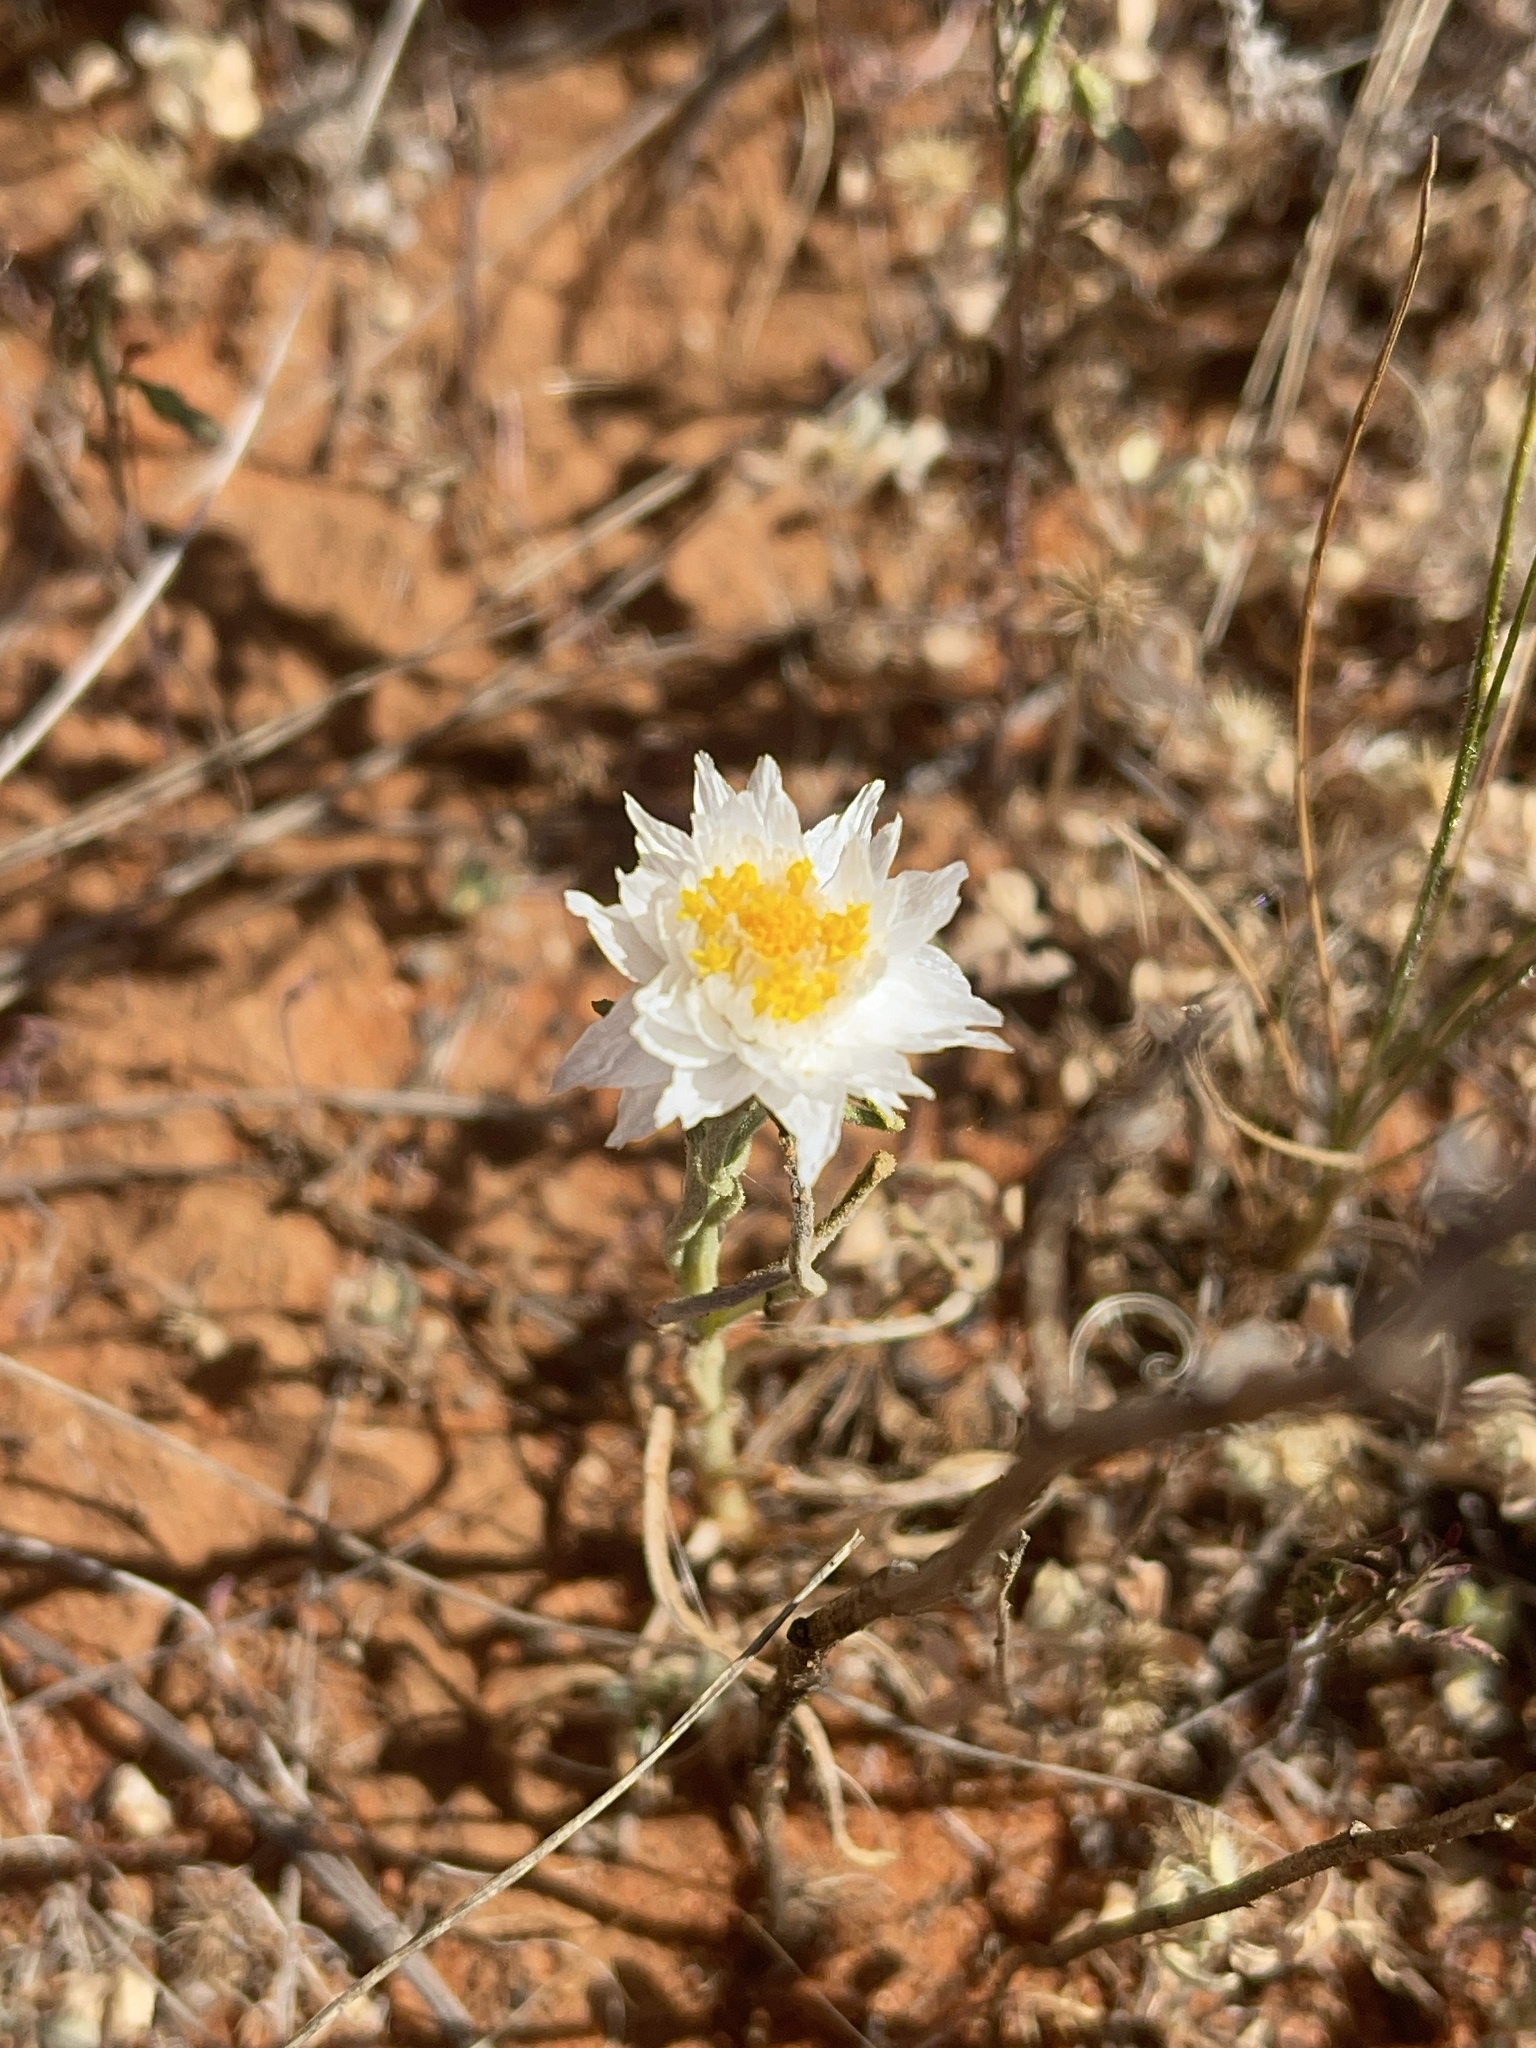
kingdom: Plantae
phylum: Tracheophyta
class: Magnoliopsida
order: Asterales
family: Asteraceae
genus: Polycalymma
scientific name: Polycalymma stuartii
